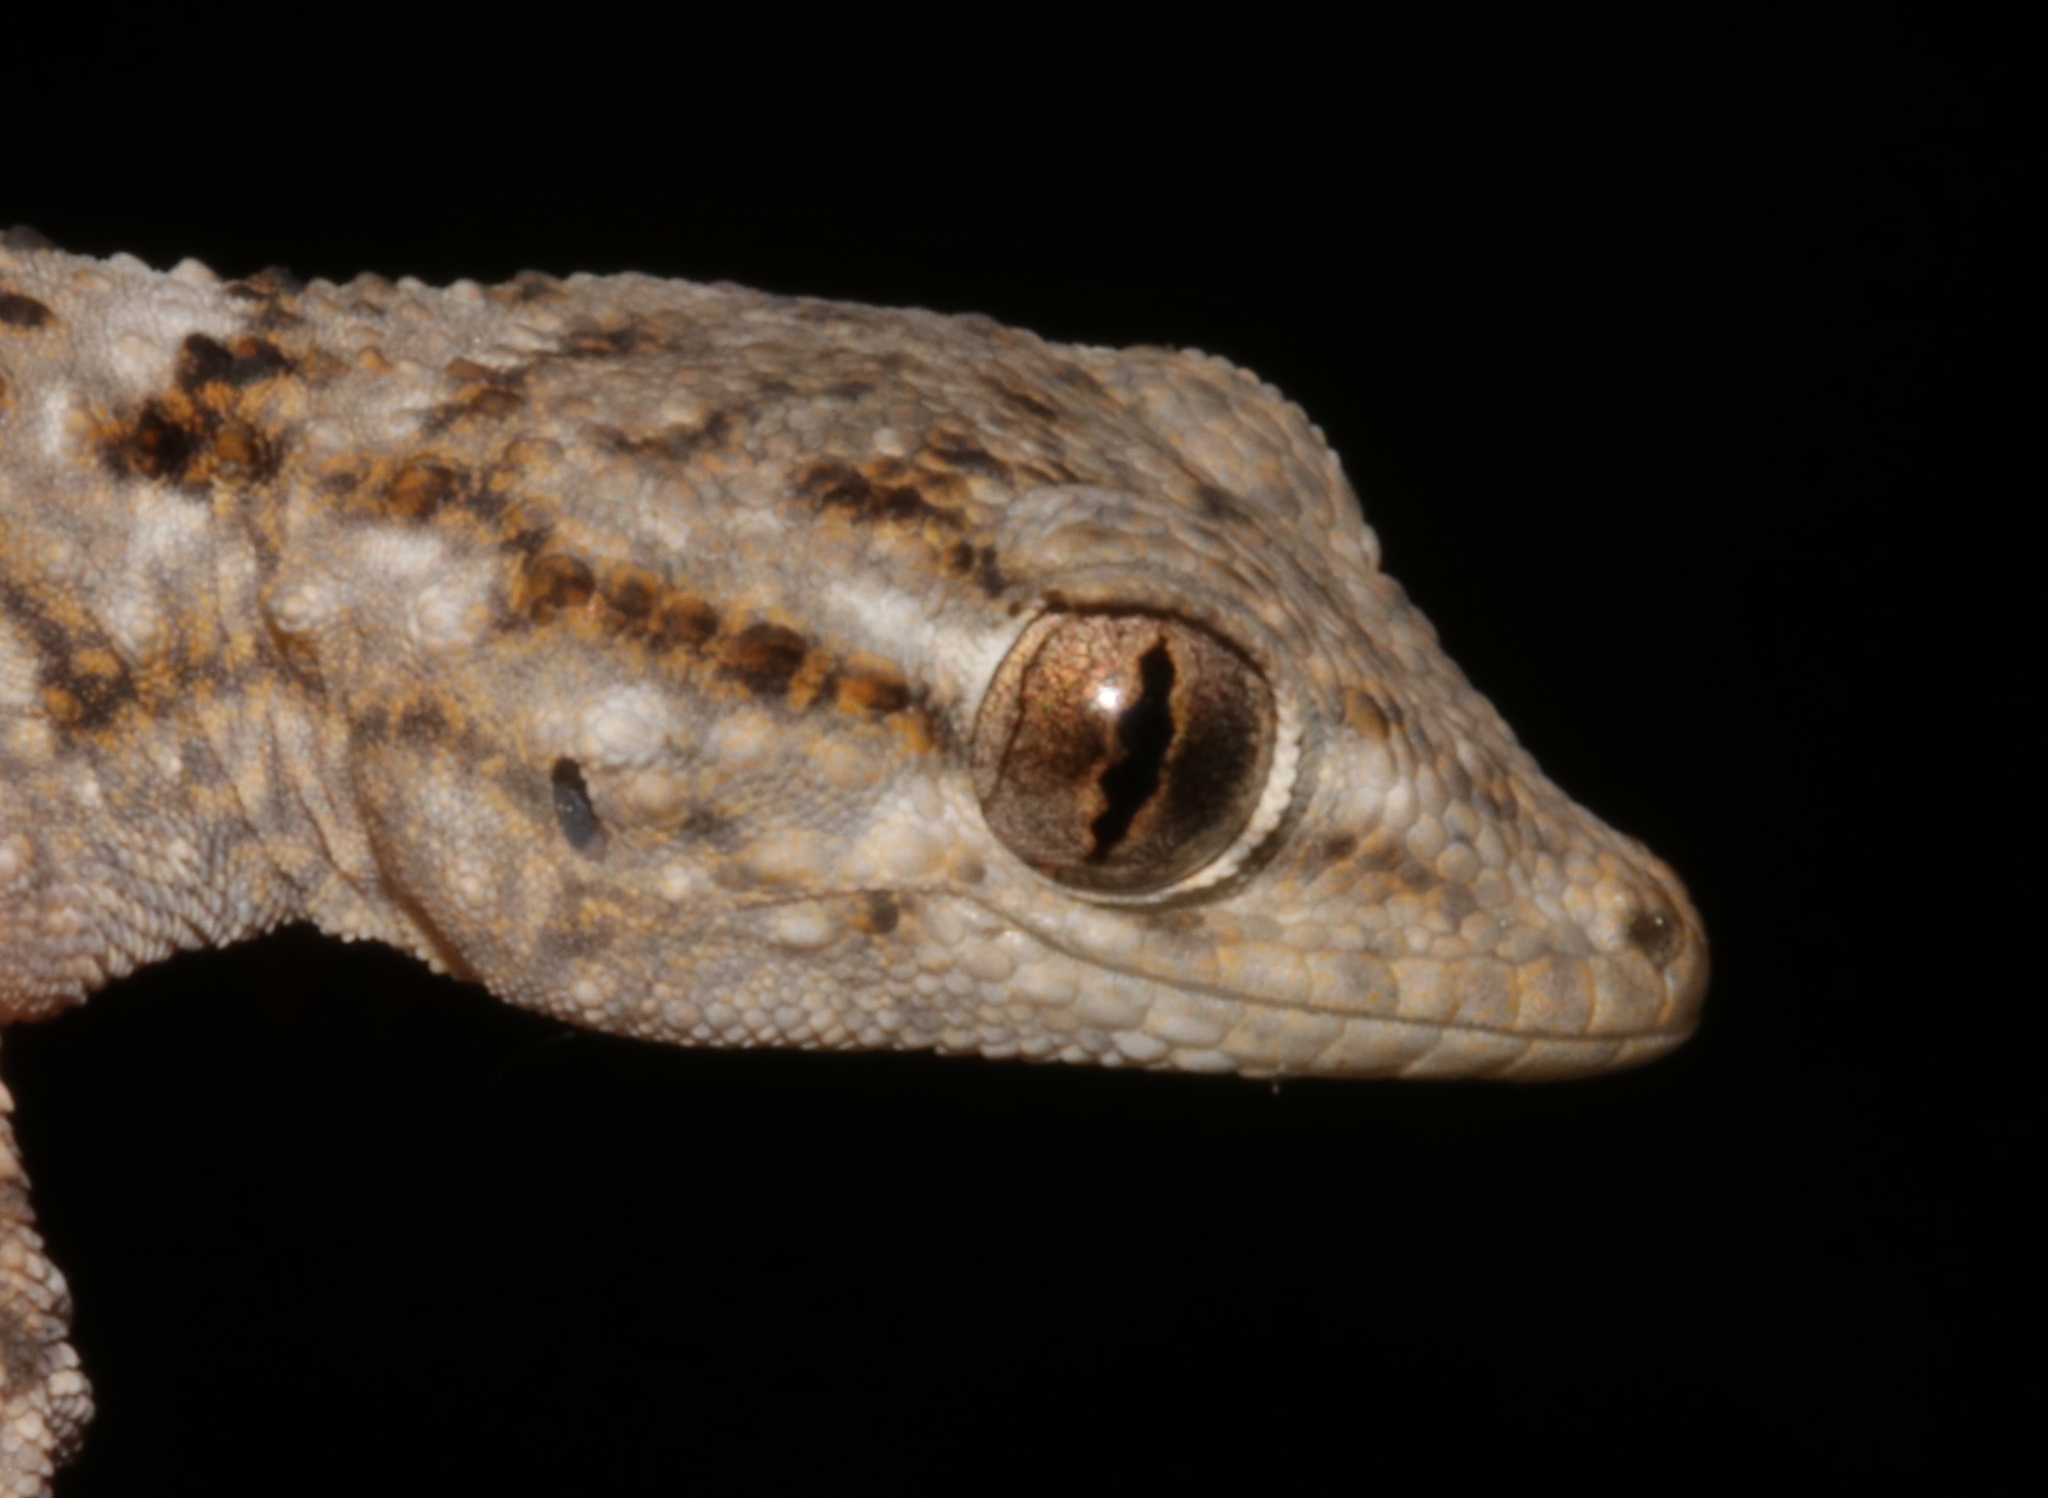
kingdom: Animalia
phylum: Chordata
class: Squamata
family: Phyllodactylidae
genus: Tarentola
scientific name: Tarentola mauritanica
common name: Moorish gecko
